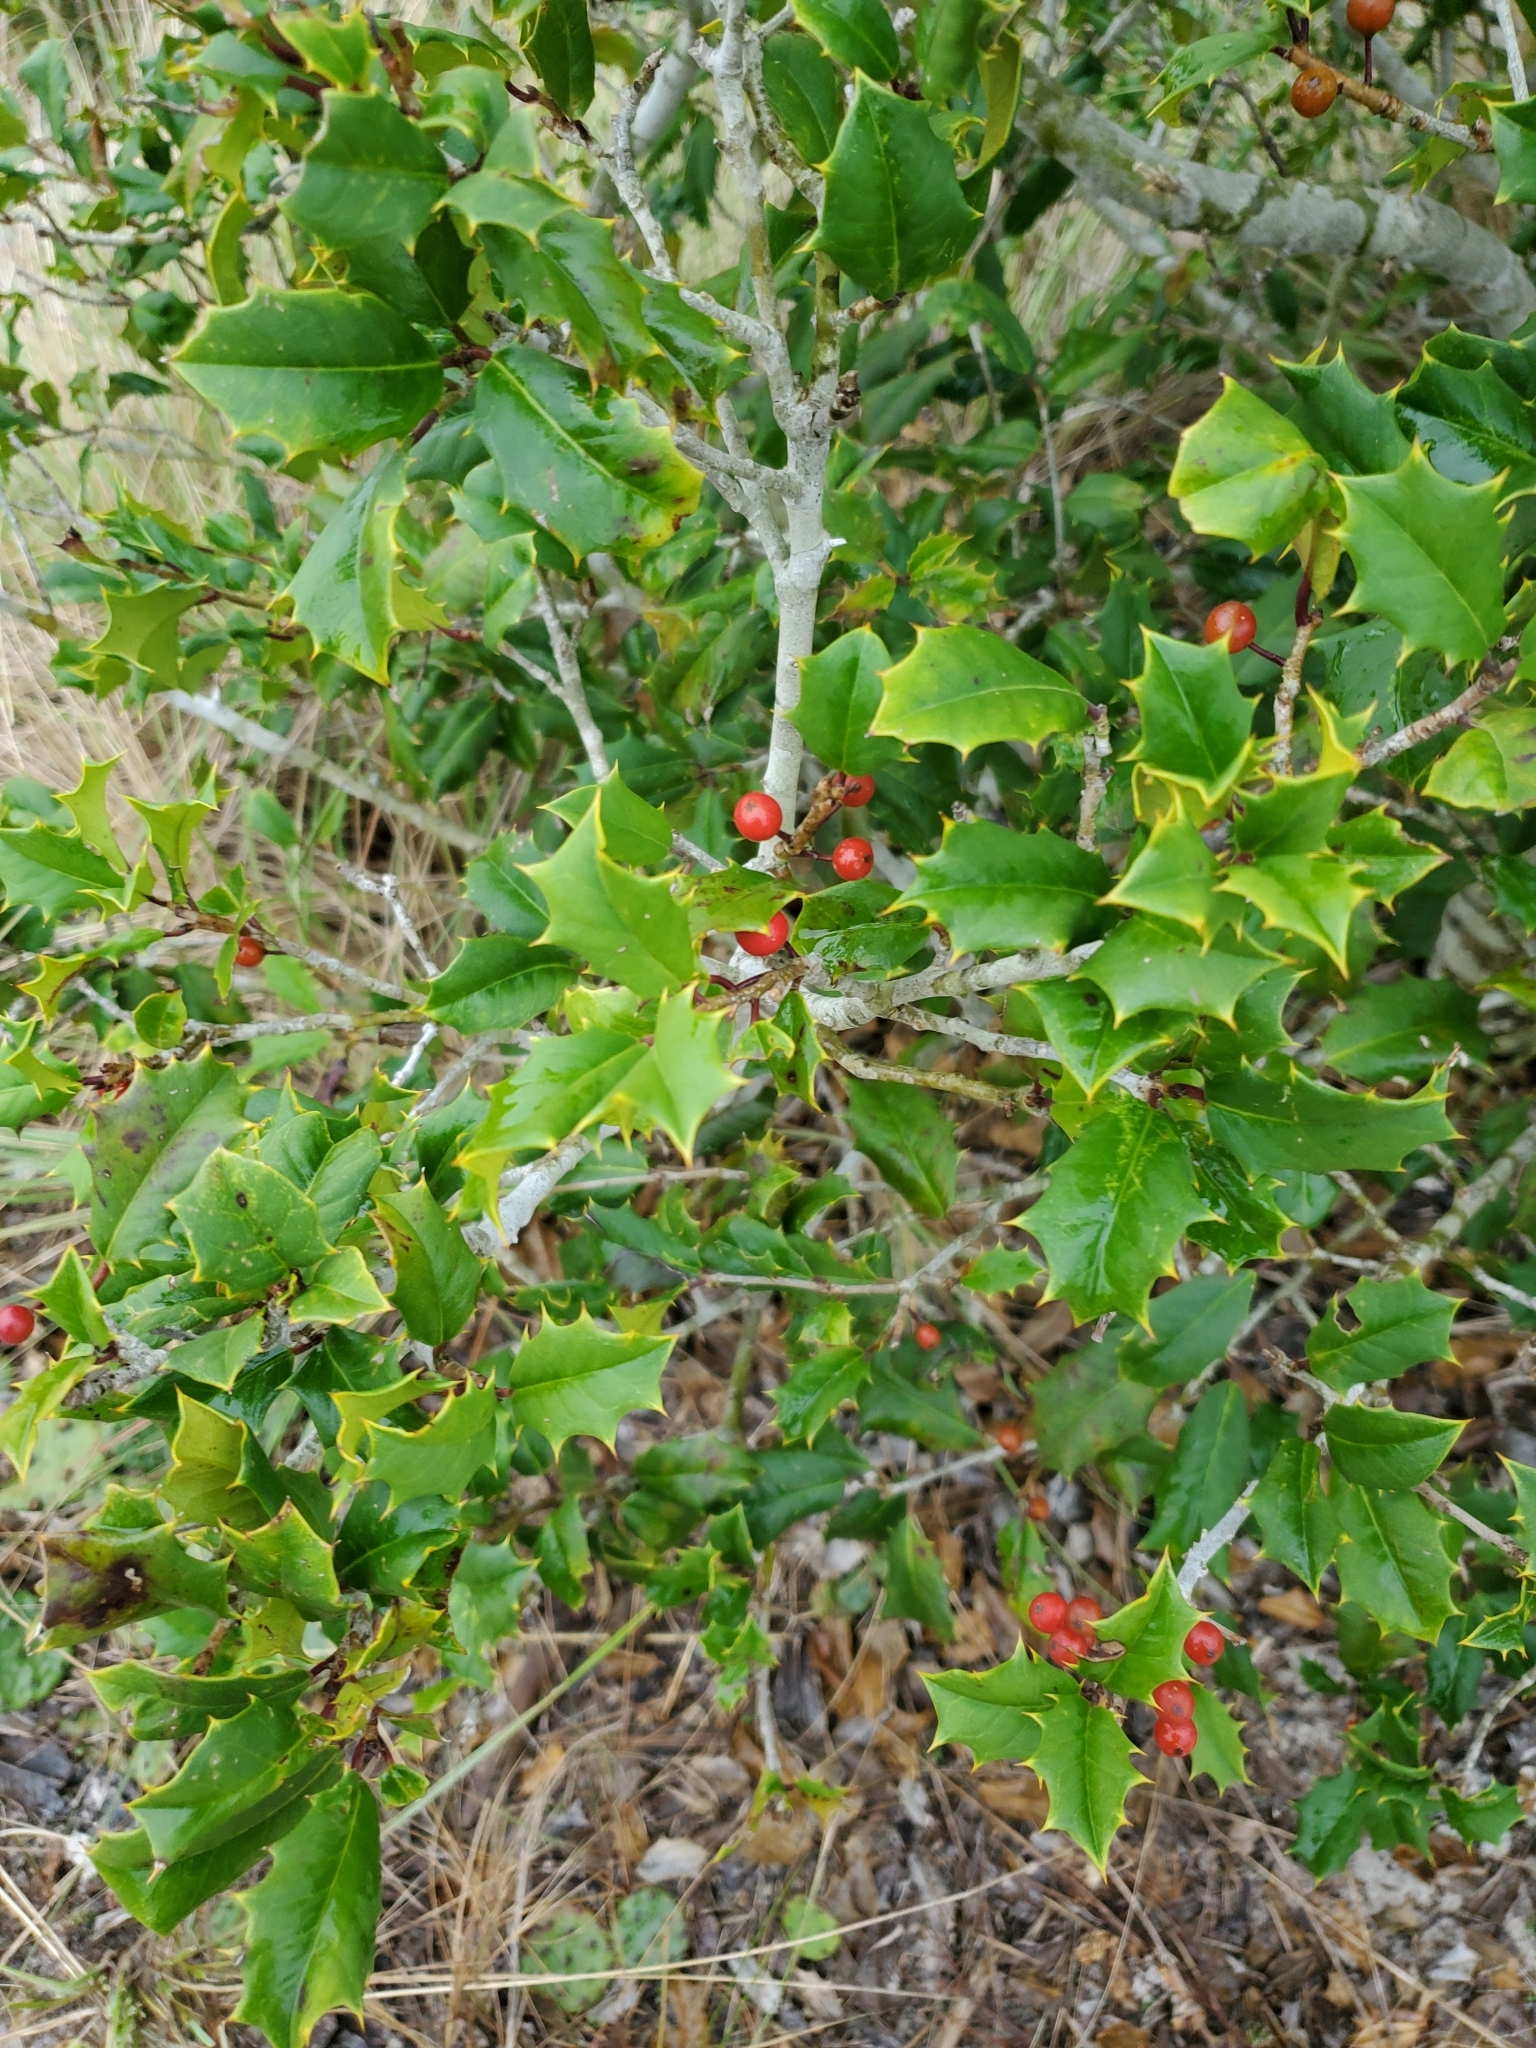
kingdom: Plantae
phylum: Tracheophyta
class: Magnoliopsida
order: Aquifoliales
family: Aquifoliaceae
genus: Ilex
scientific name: Ilex opaca
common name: American holly
